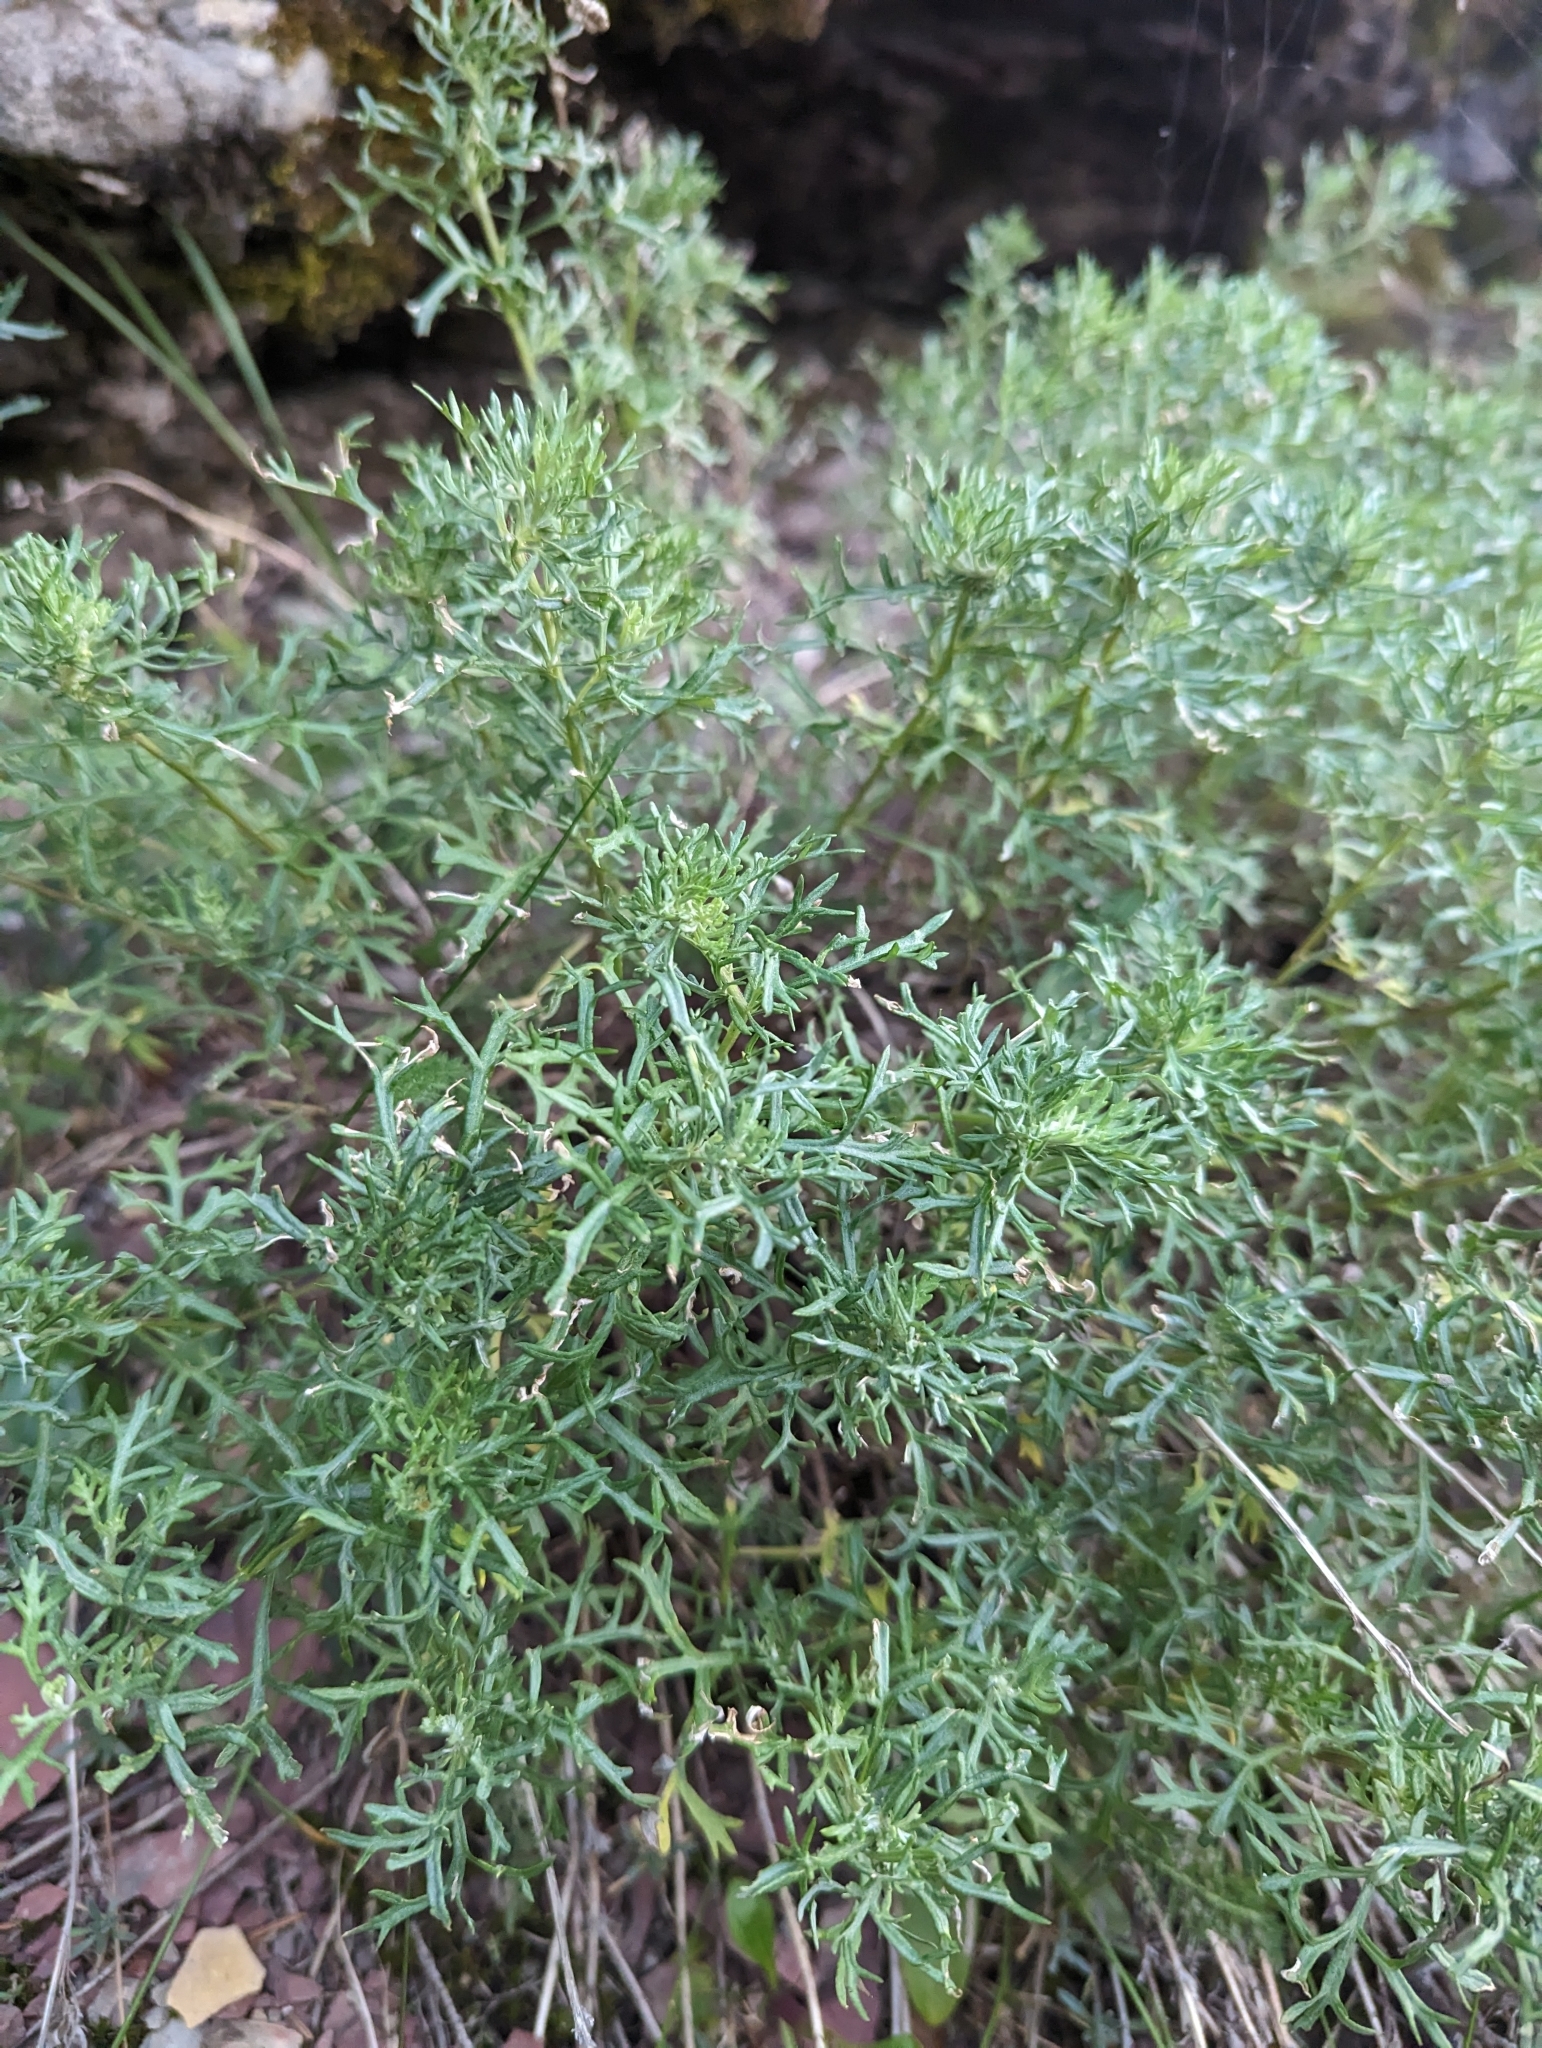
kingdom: Plantae
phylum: Tracheophyta
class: Magnoliopsida
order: Asterales
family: Asteraceae
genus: Artemisia
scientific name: Artemisia michauxiana
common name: Lemon sagewort
